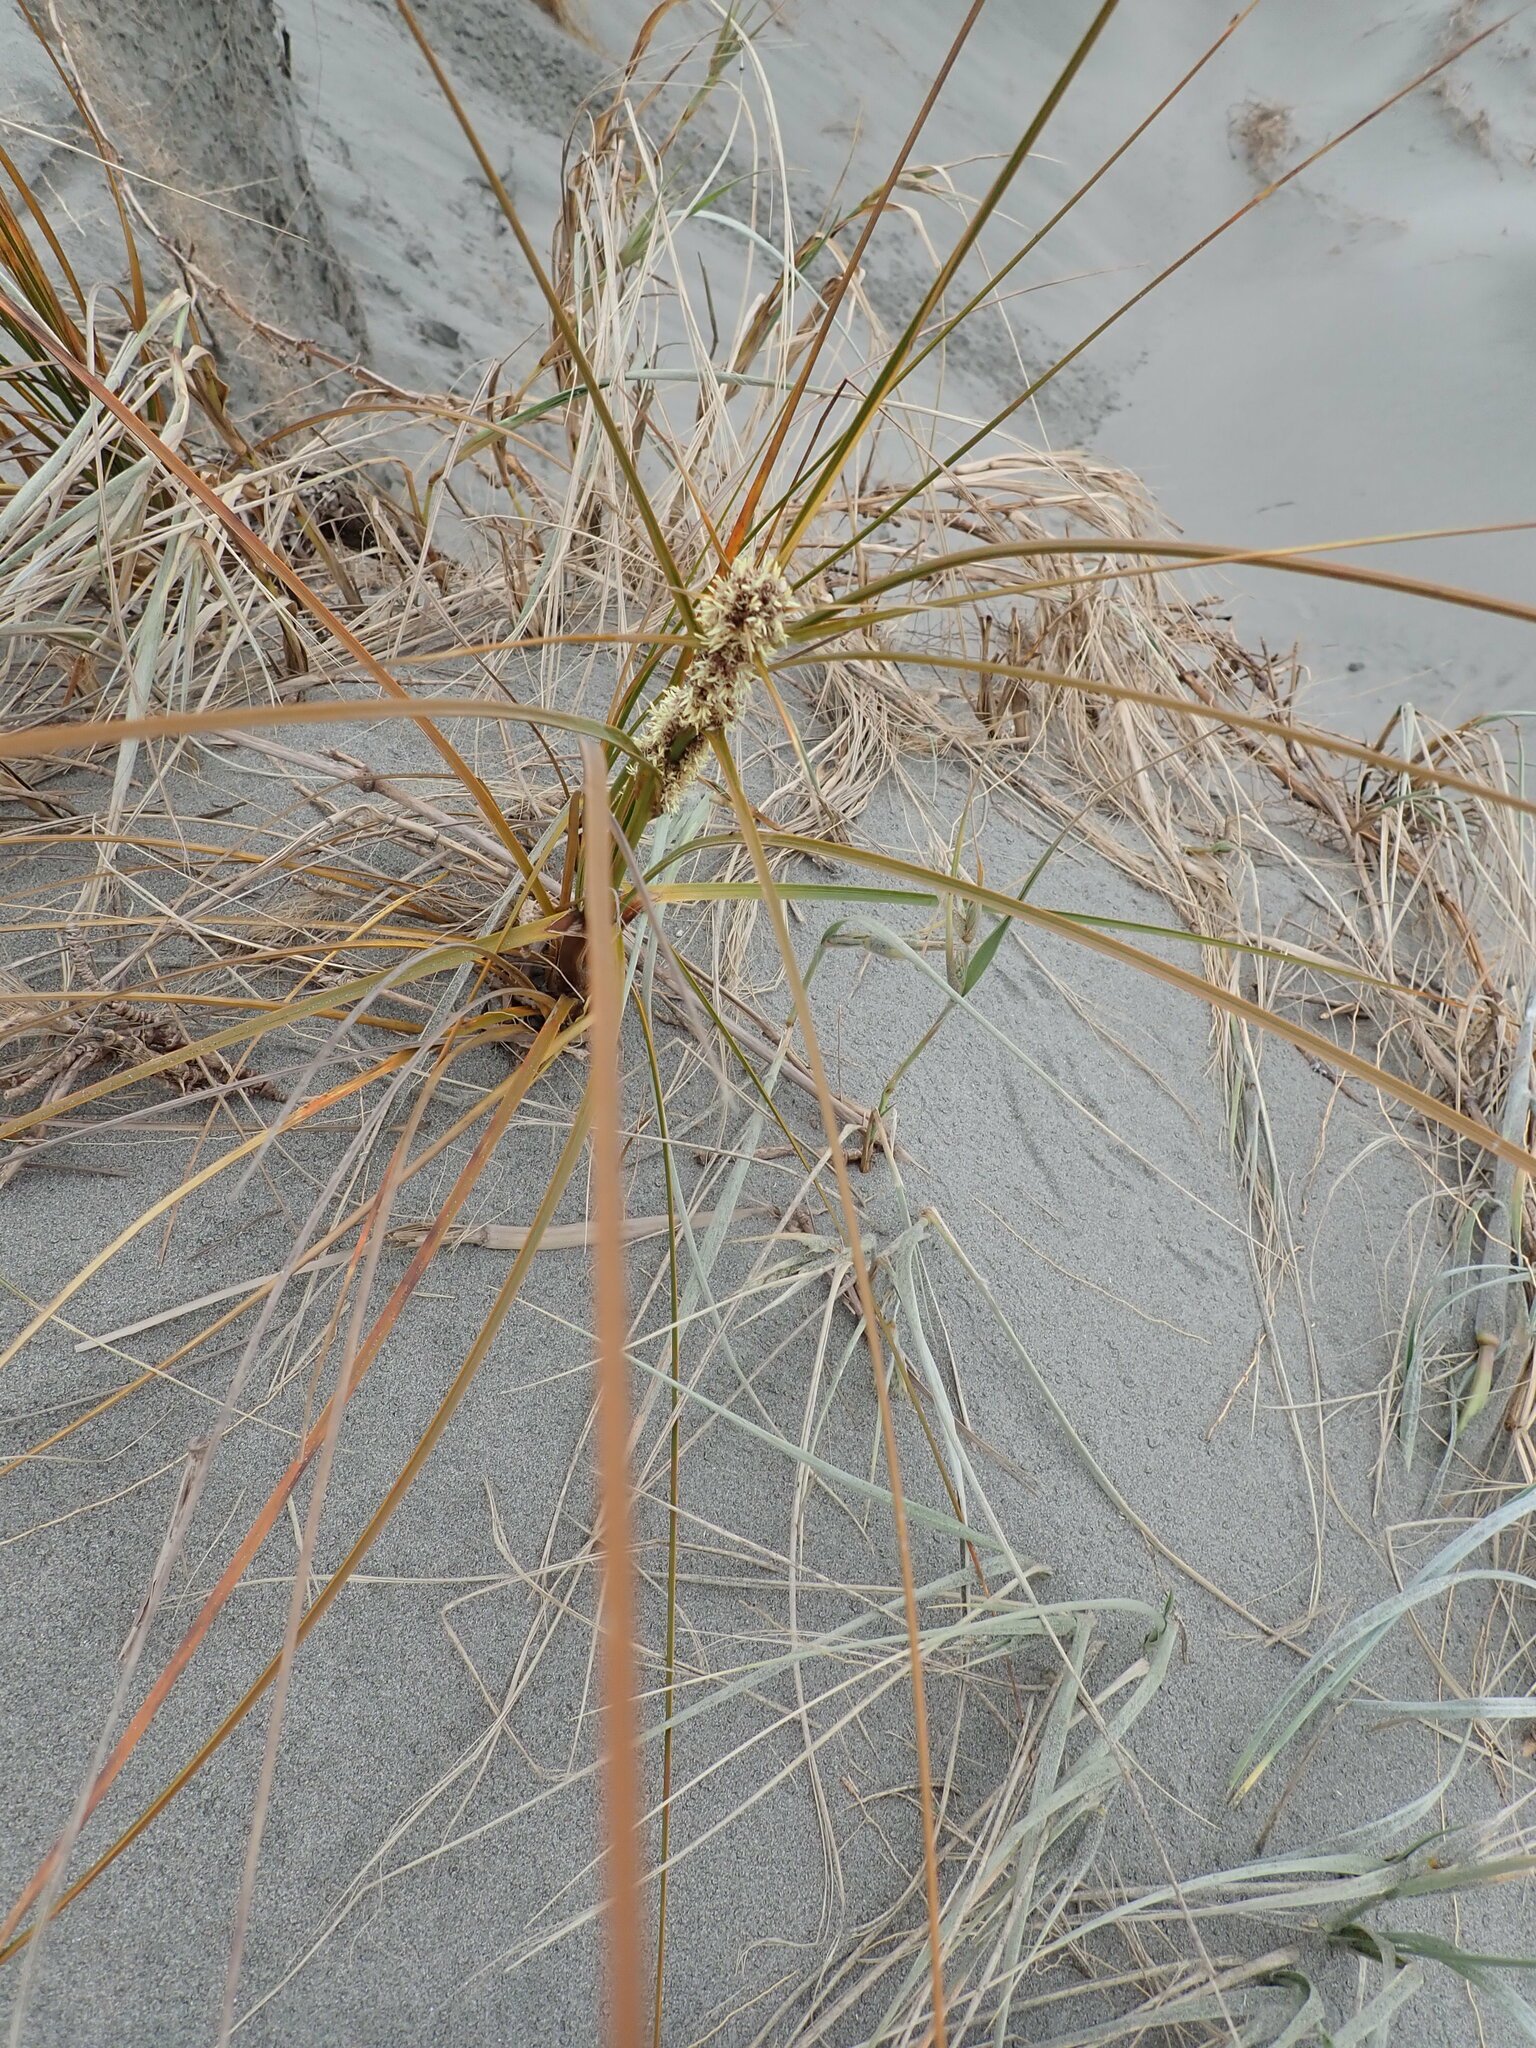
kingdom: Plantae
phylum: Tracheophyta
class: Liliopsida
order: Poales
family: Cyperaceae
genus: Ficinia
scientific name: Ficinia spiralis
